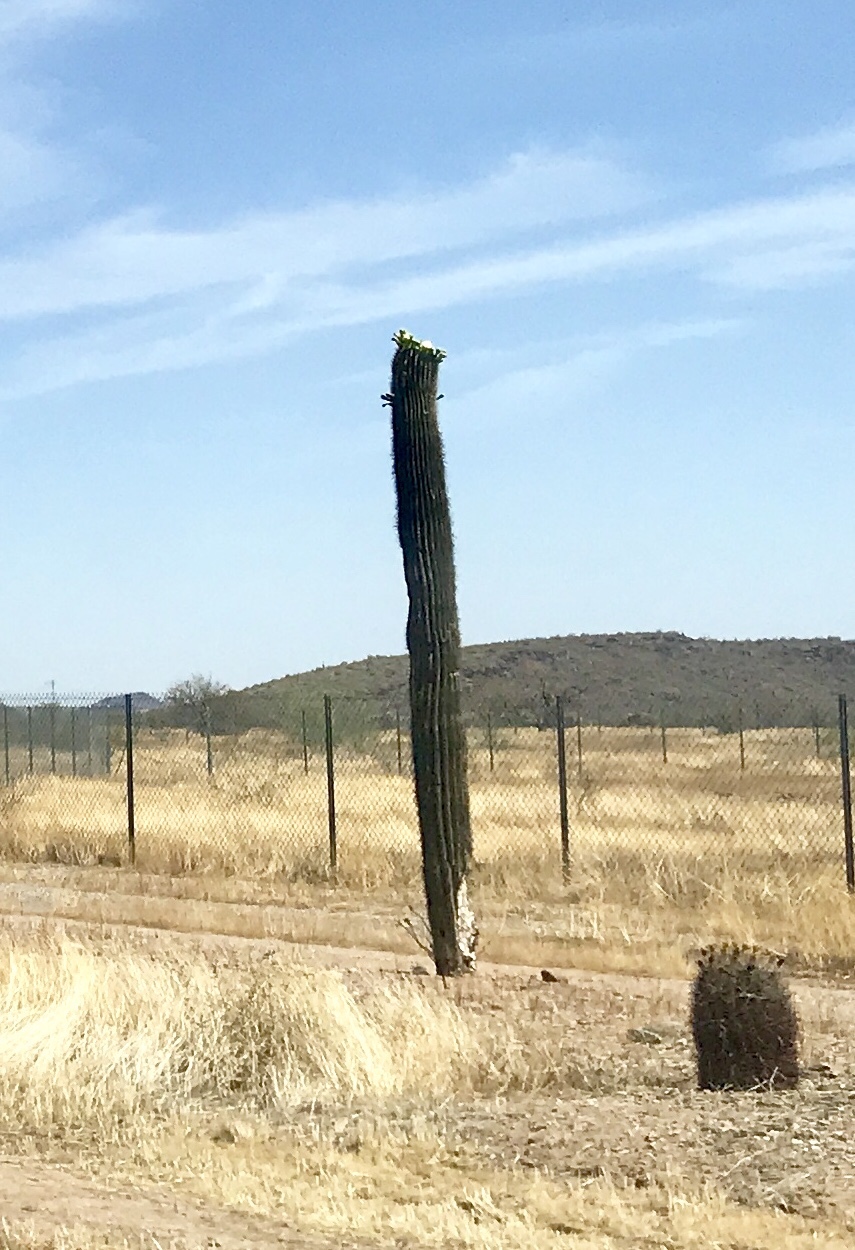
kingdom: Plantae
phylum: Tracheophyta
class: Magnoliopsida
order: Caryophyllales
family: Cactaceae
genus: Carnegiea
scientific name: Carnegiea gigantea
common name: Saguaro
